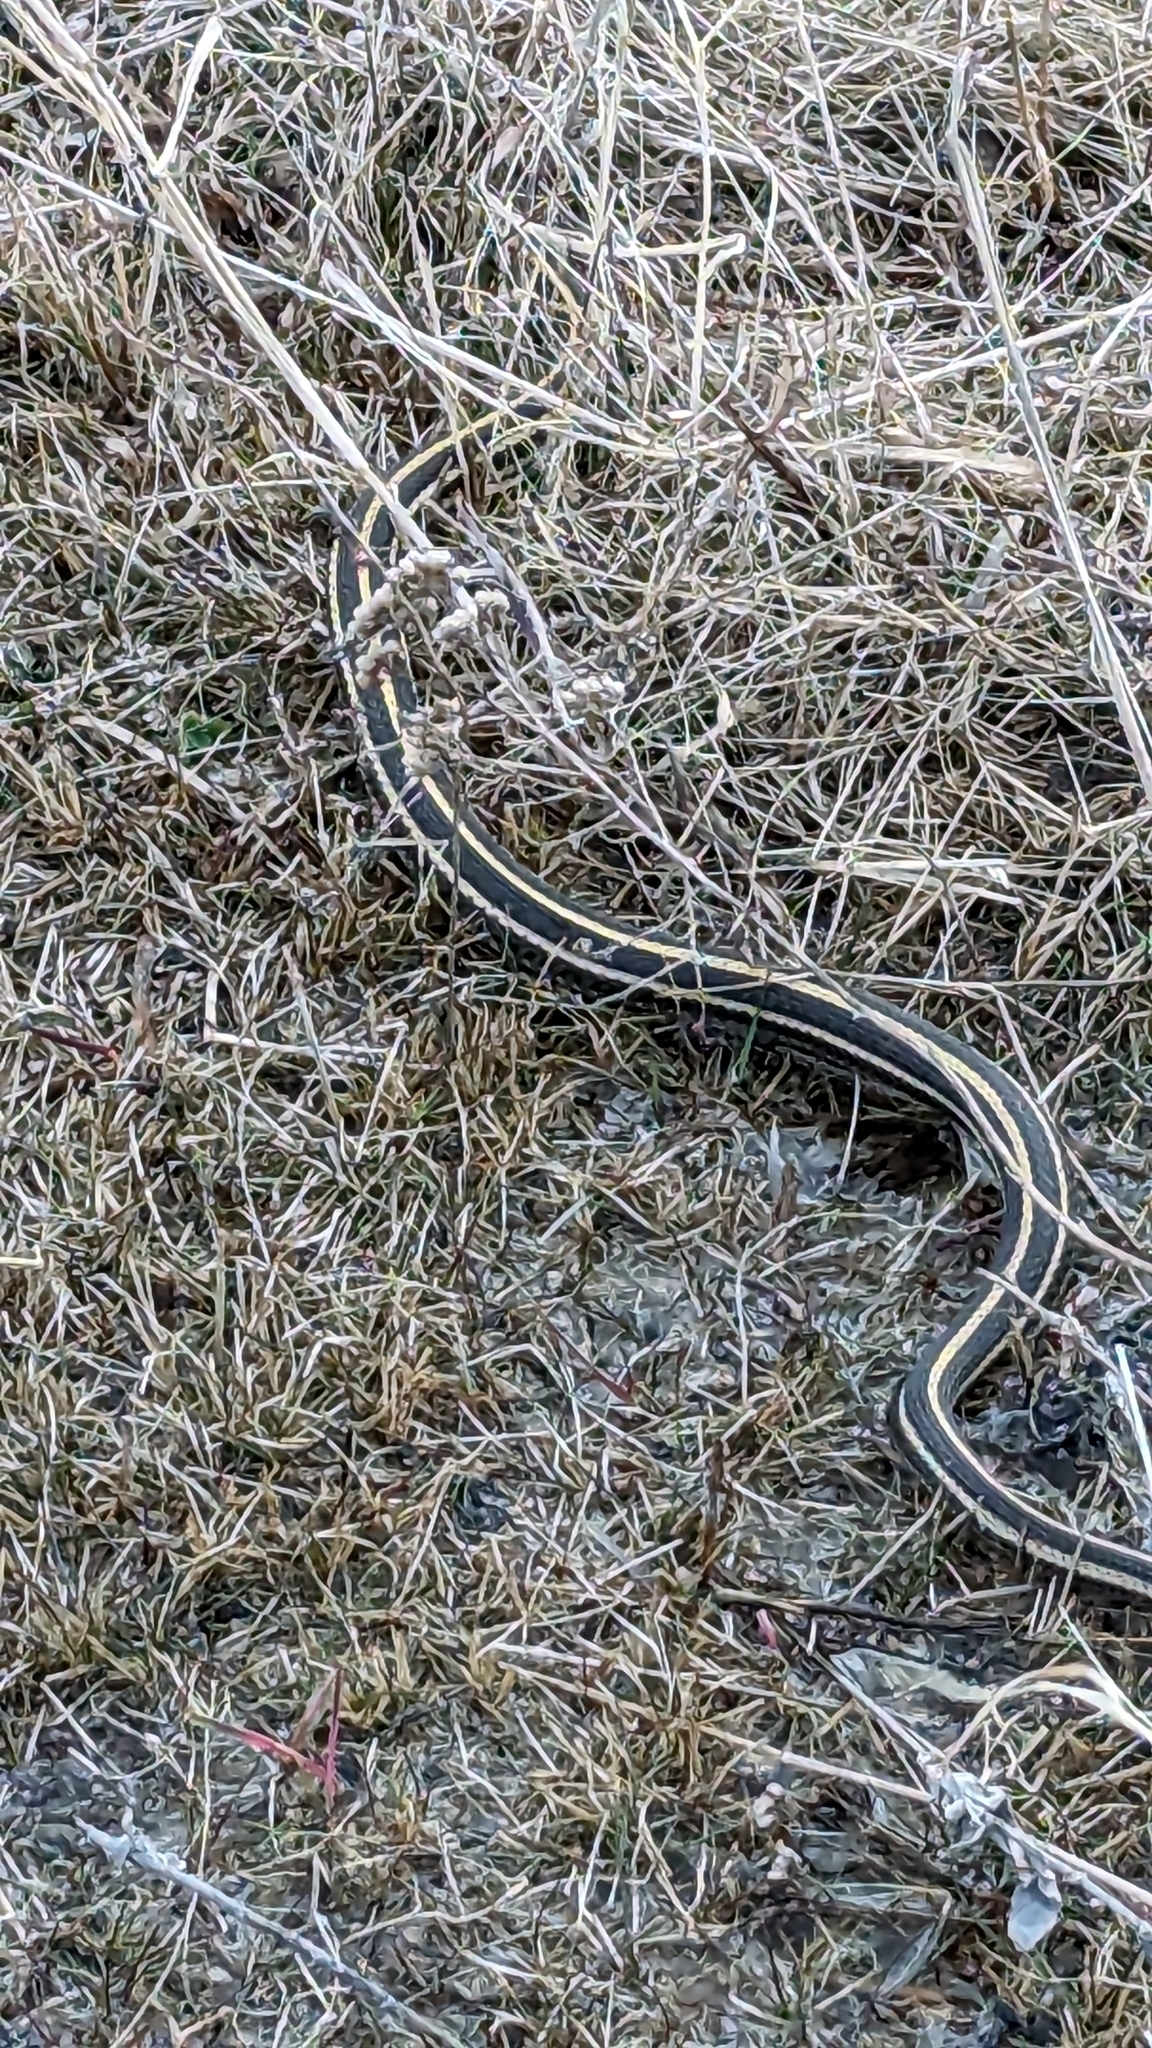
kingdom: Animalia
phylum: Chordata
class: Squamata
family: Colubridae
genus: Thamnophis
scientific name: Thamnophis radix
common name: Plains garter snake
